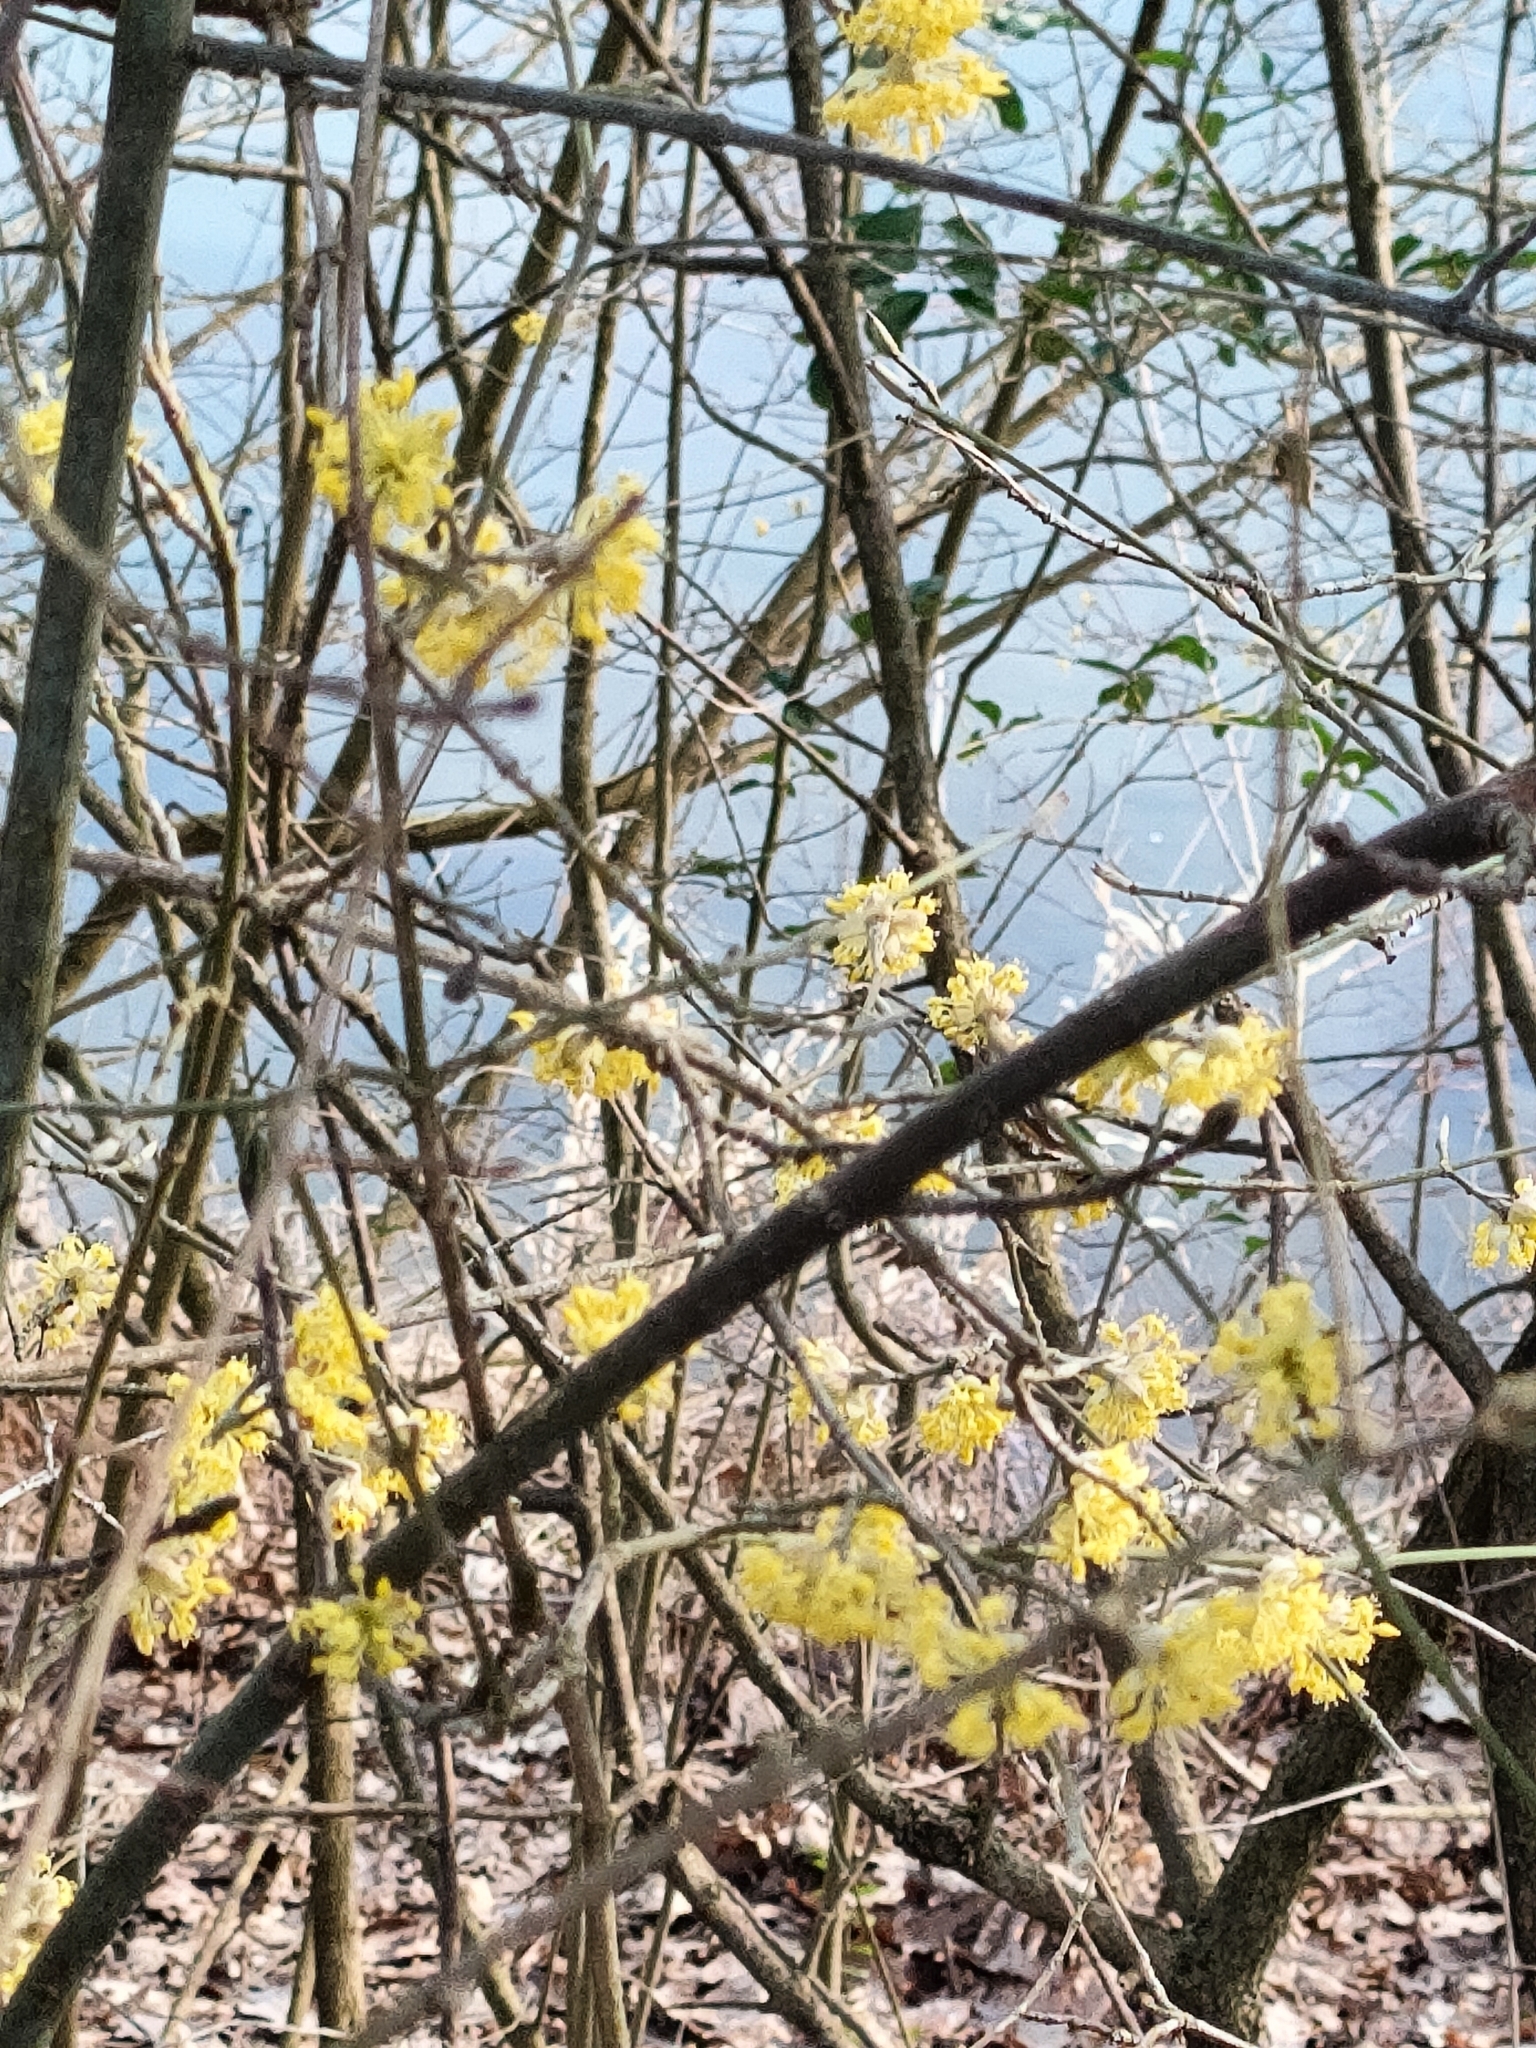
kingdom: Plantae
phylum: Tracheophyta
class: Magnoliopsida
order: Cornales
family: Cornaceae
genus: Cornus
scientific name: Cornus mas
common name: Cornelian-cherry
